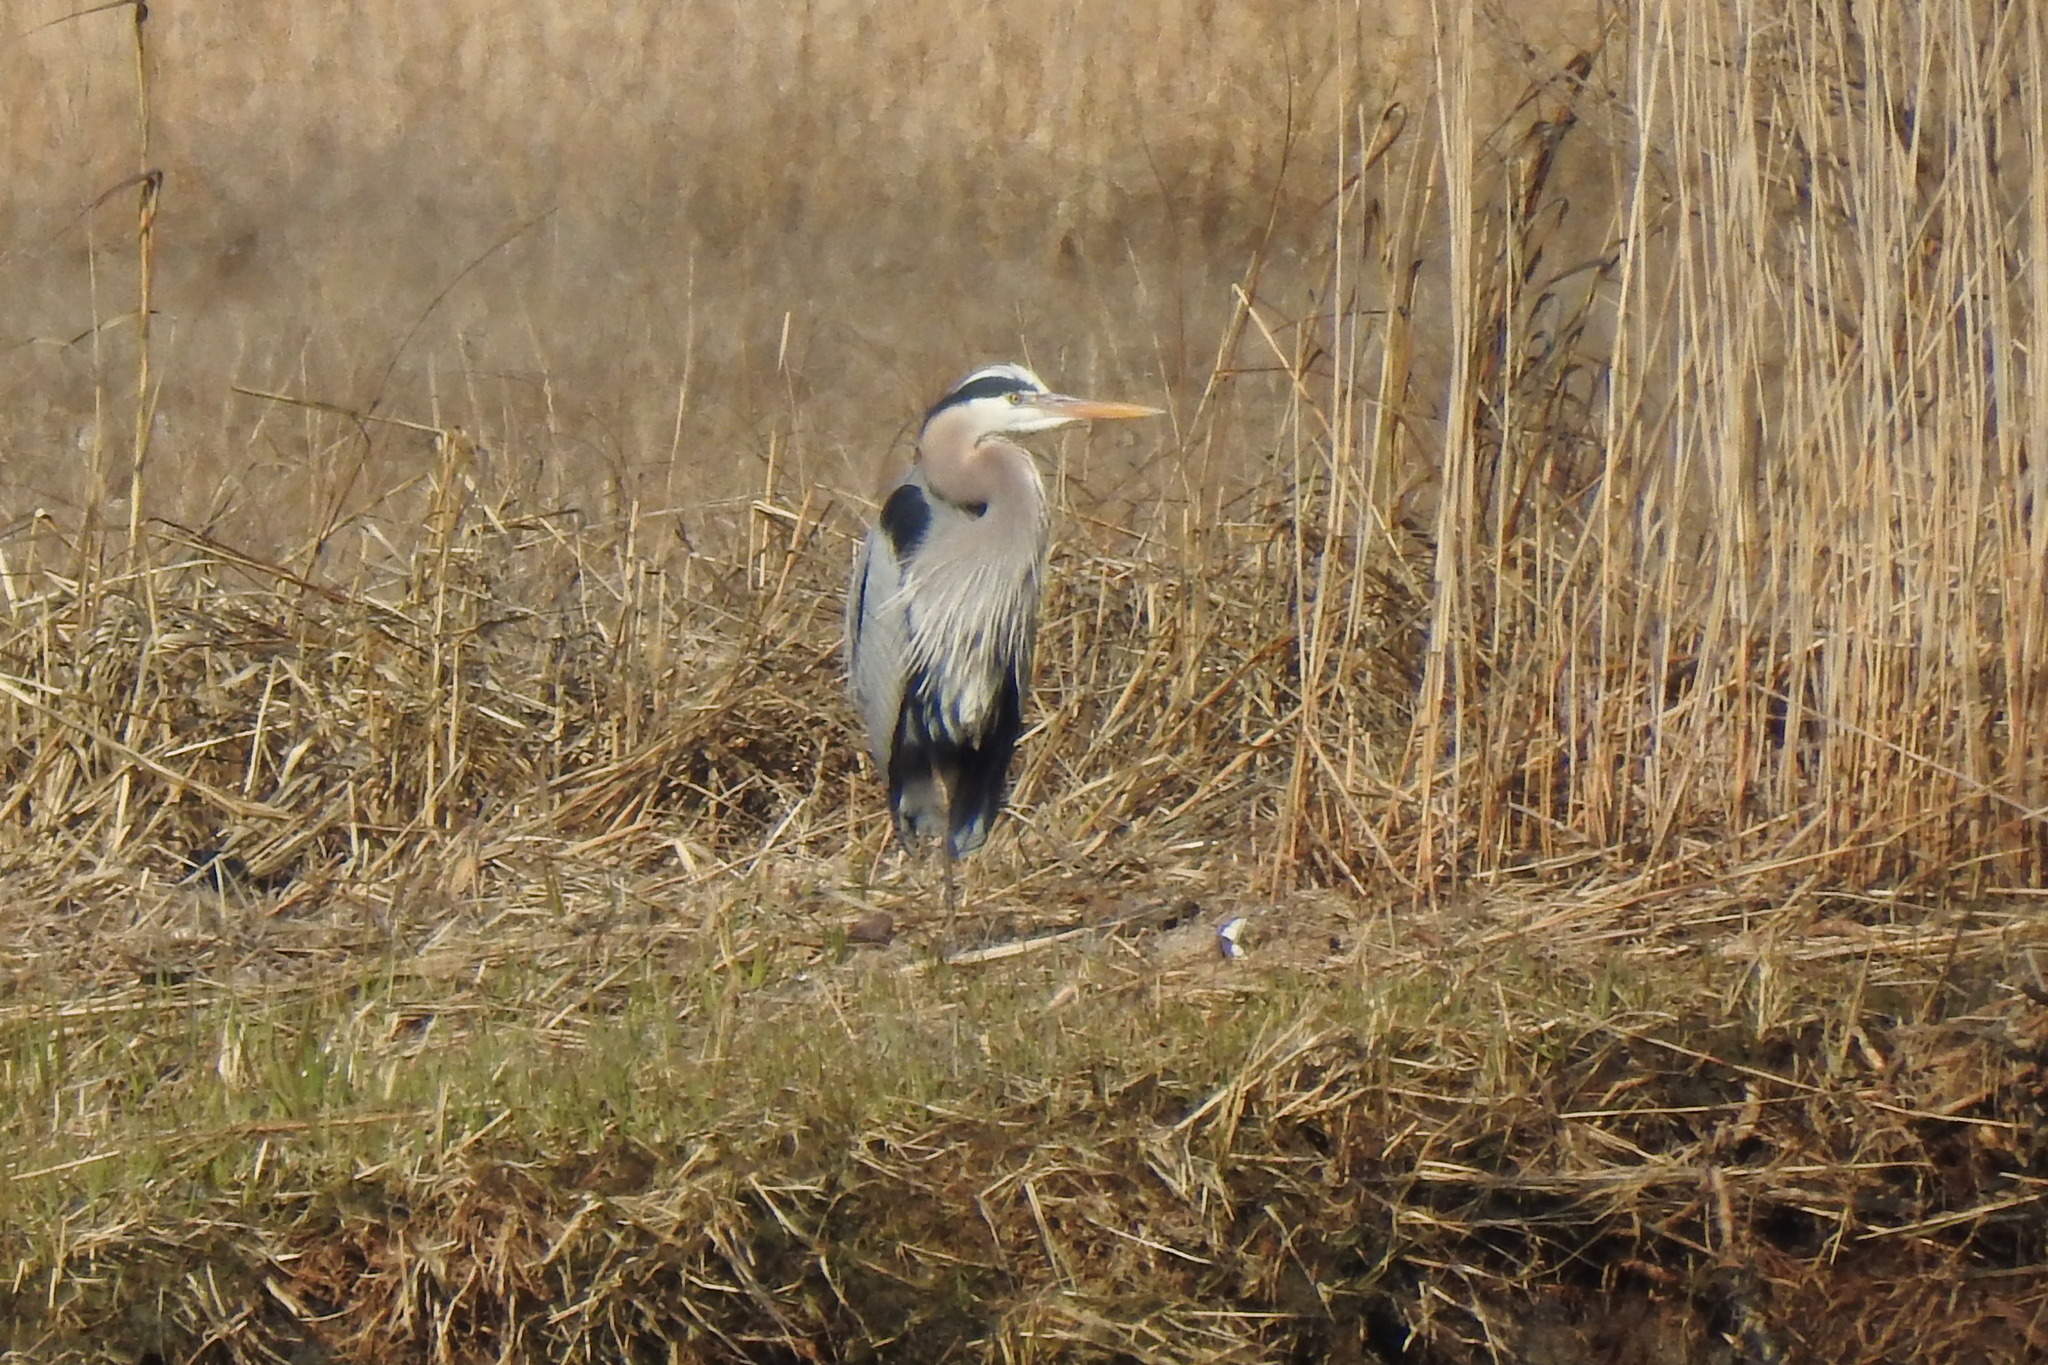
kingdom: Animalia
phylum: Chordata
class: Aves
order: Pelecaniformes
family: Ardeidae
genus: Ardea
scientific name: Ardea herodias
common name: Great blue heron
